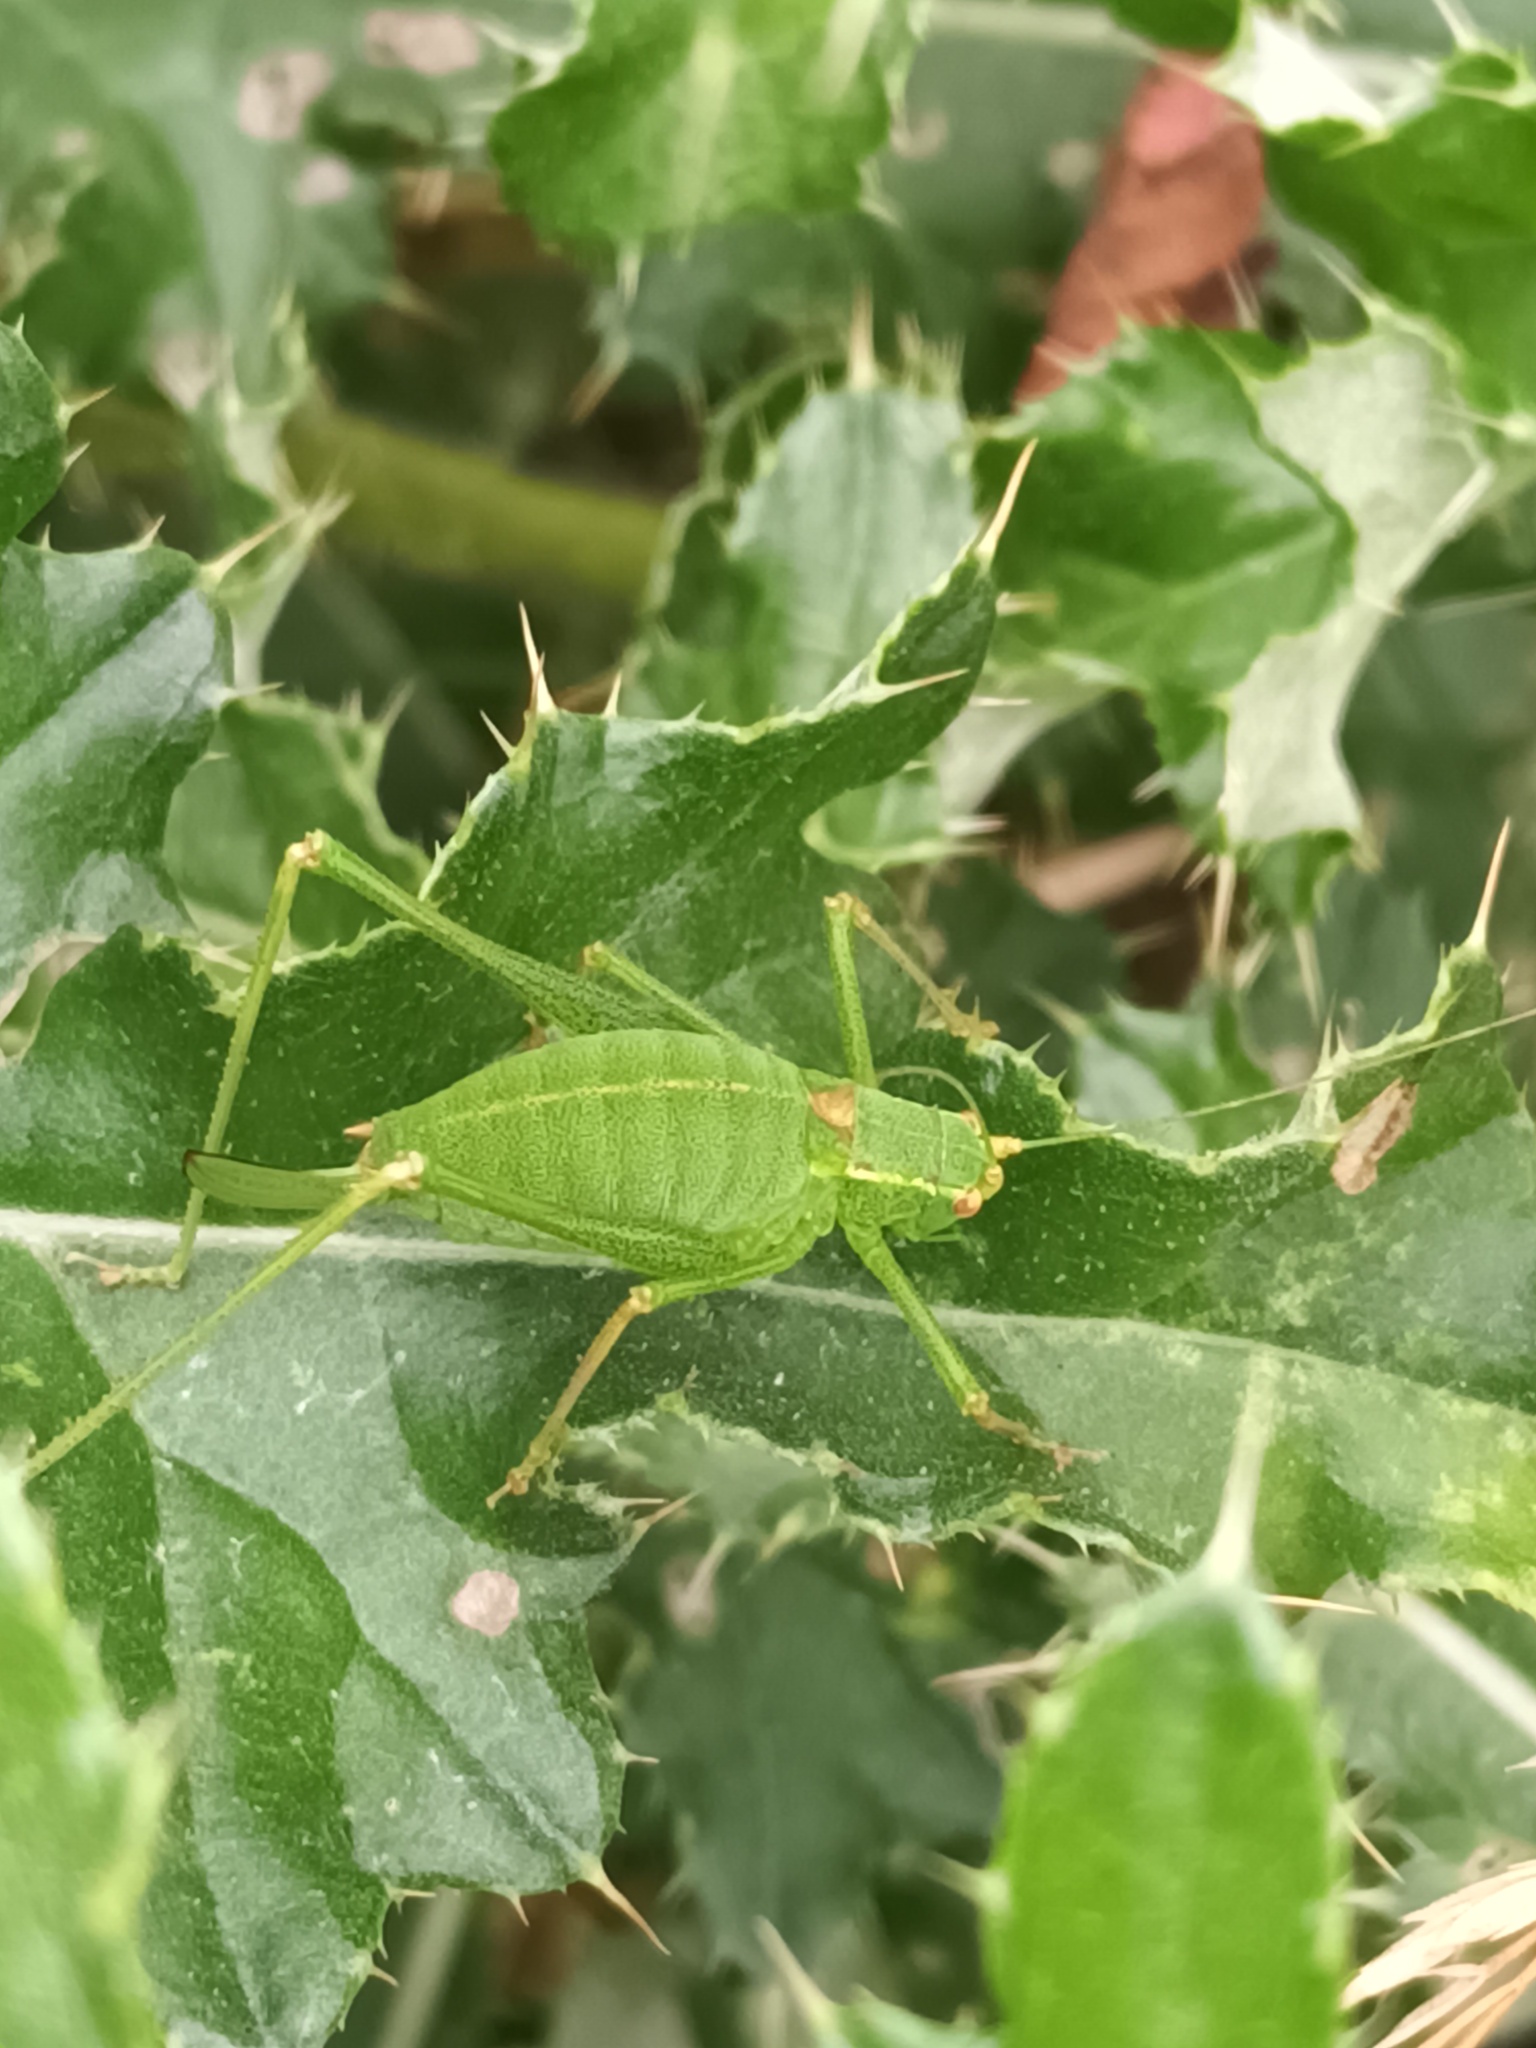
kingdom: Animalia
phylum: Arthropoda
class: Insecta
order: Orthoptera
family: Tettigoniidae
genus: Leptophyes
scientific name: Leptophyes punctatissima
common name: Speckled bush-cricket
